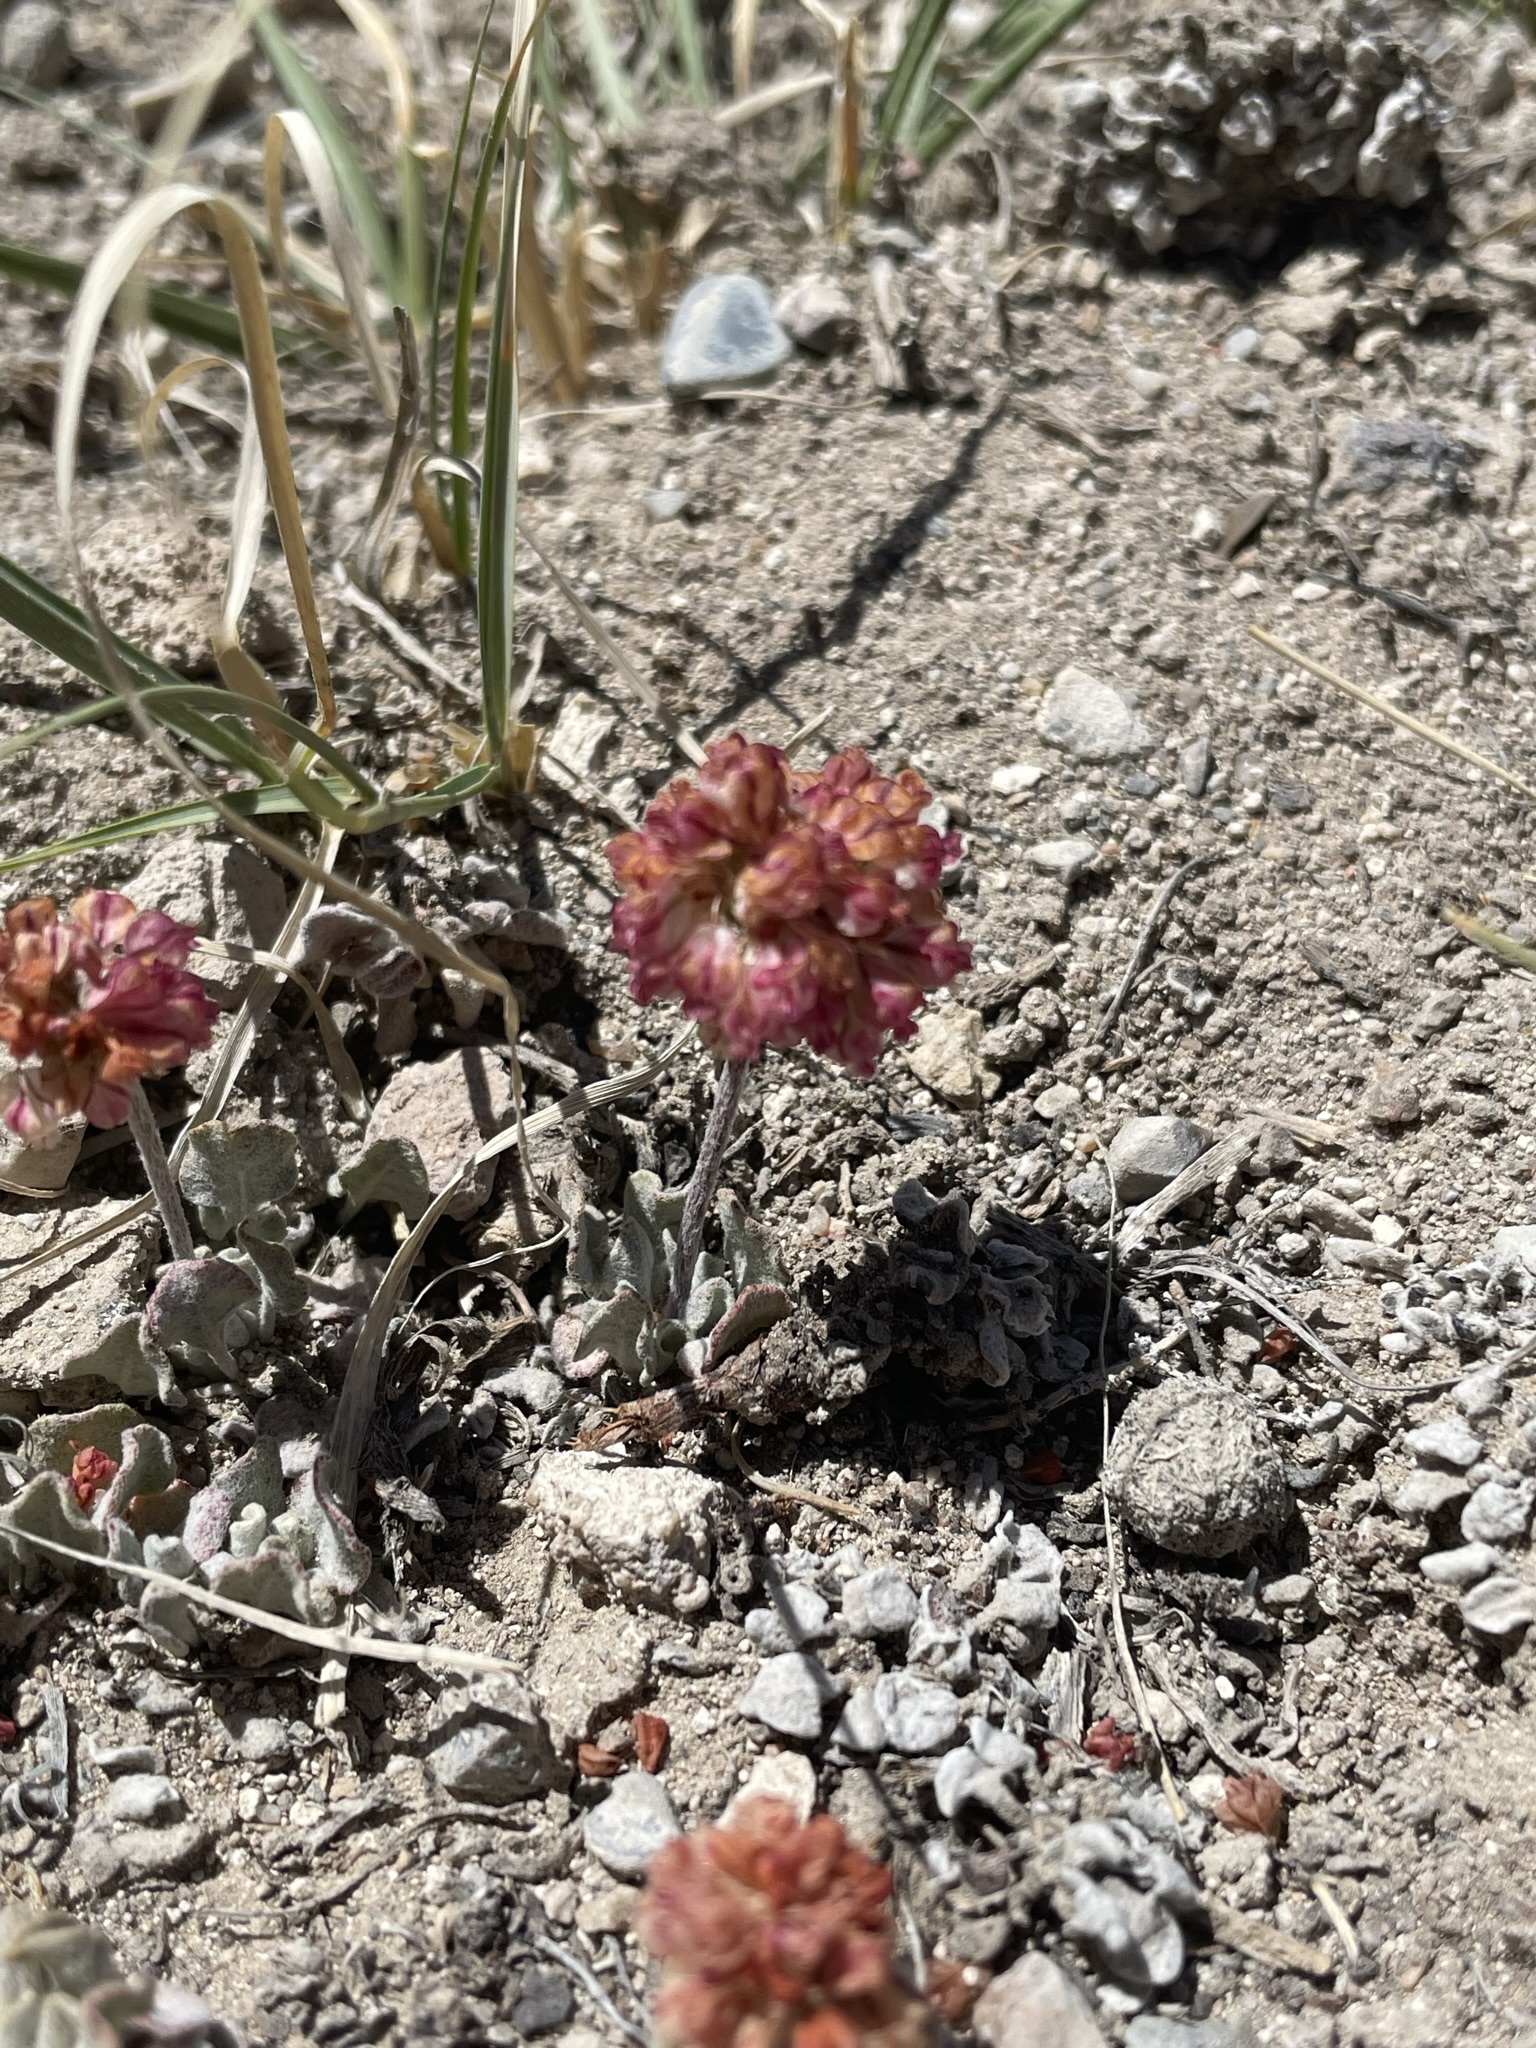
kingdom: Plantae
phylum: Tracheophyta
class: Magnoliopsida
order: Caryophyllales
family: Polygonaceae
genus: Eriogonum
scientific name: Eriogonum ovalifolium
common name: Cushion buckwheat
